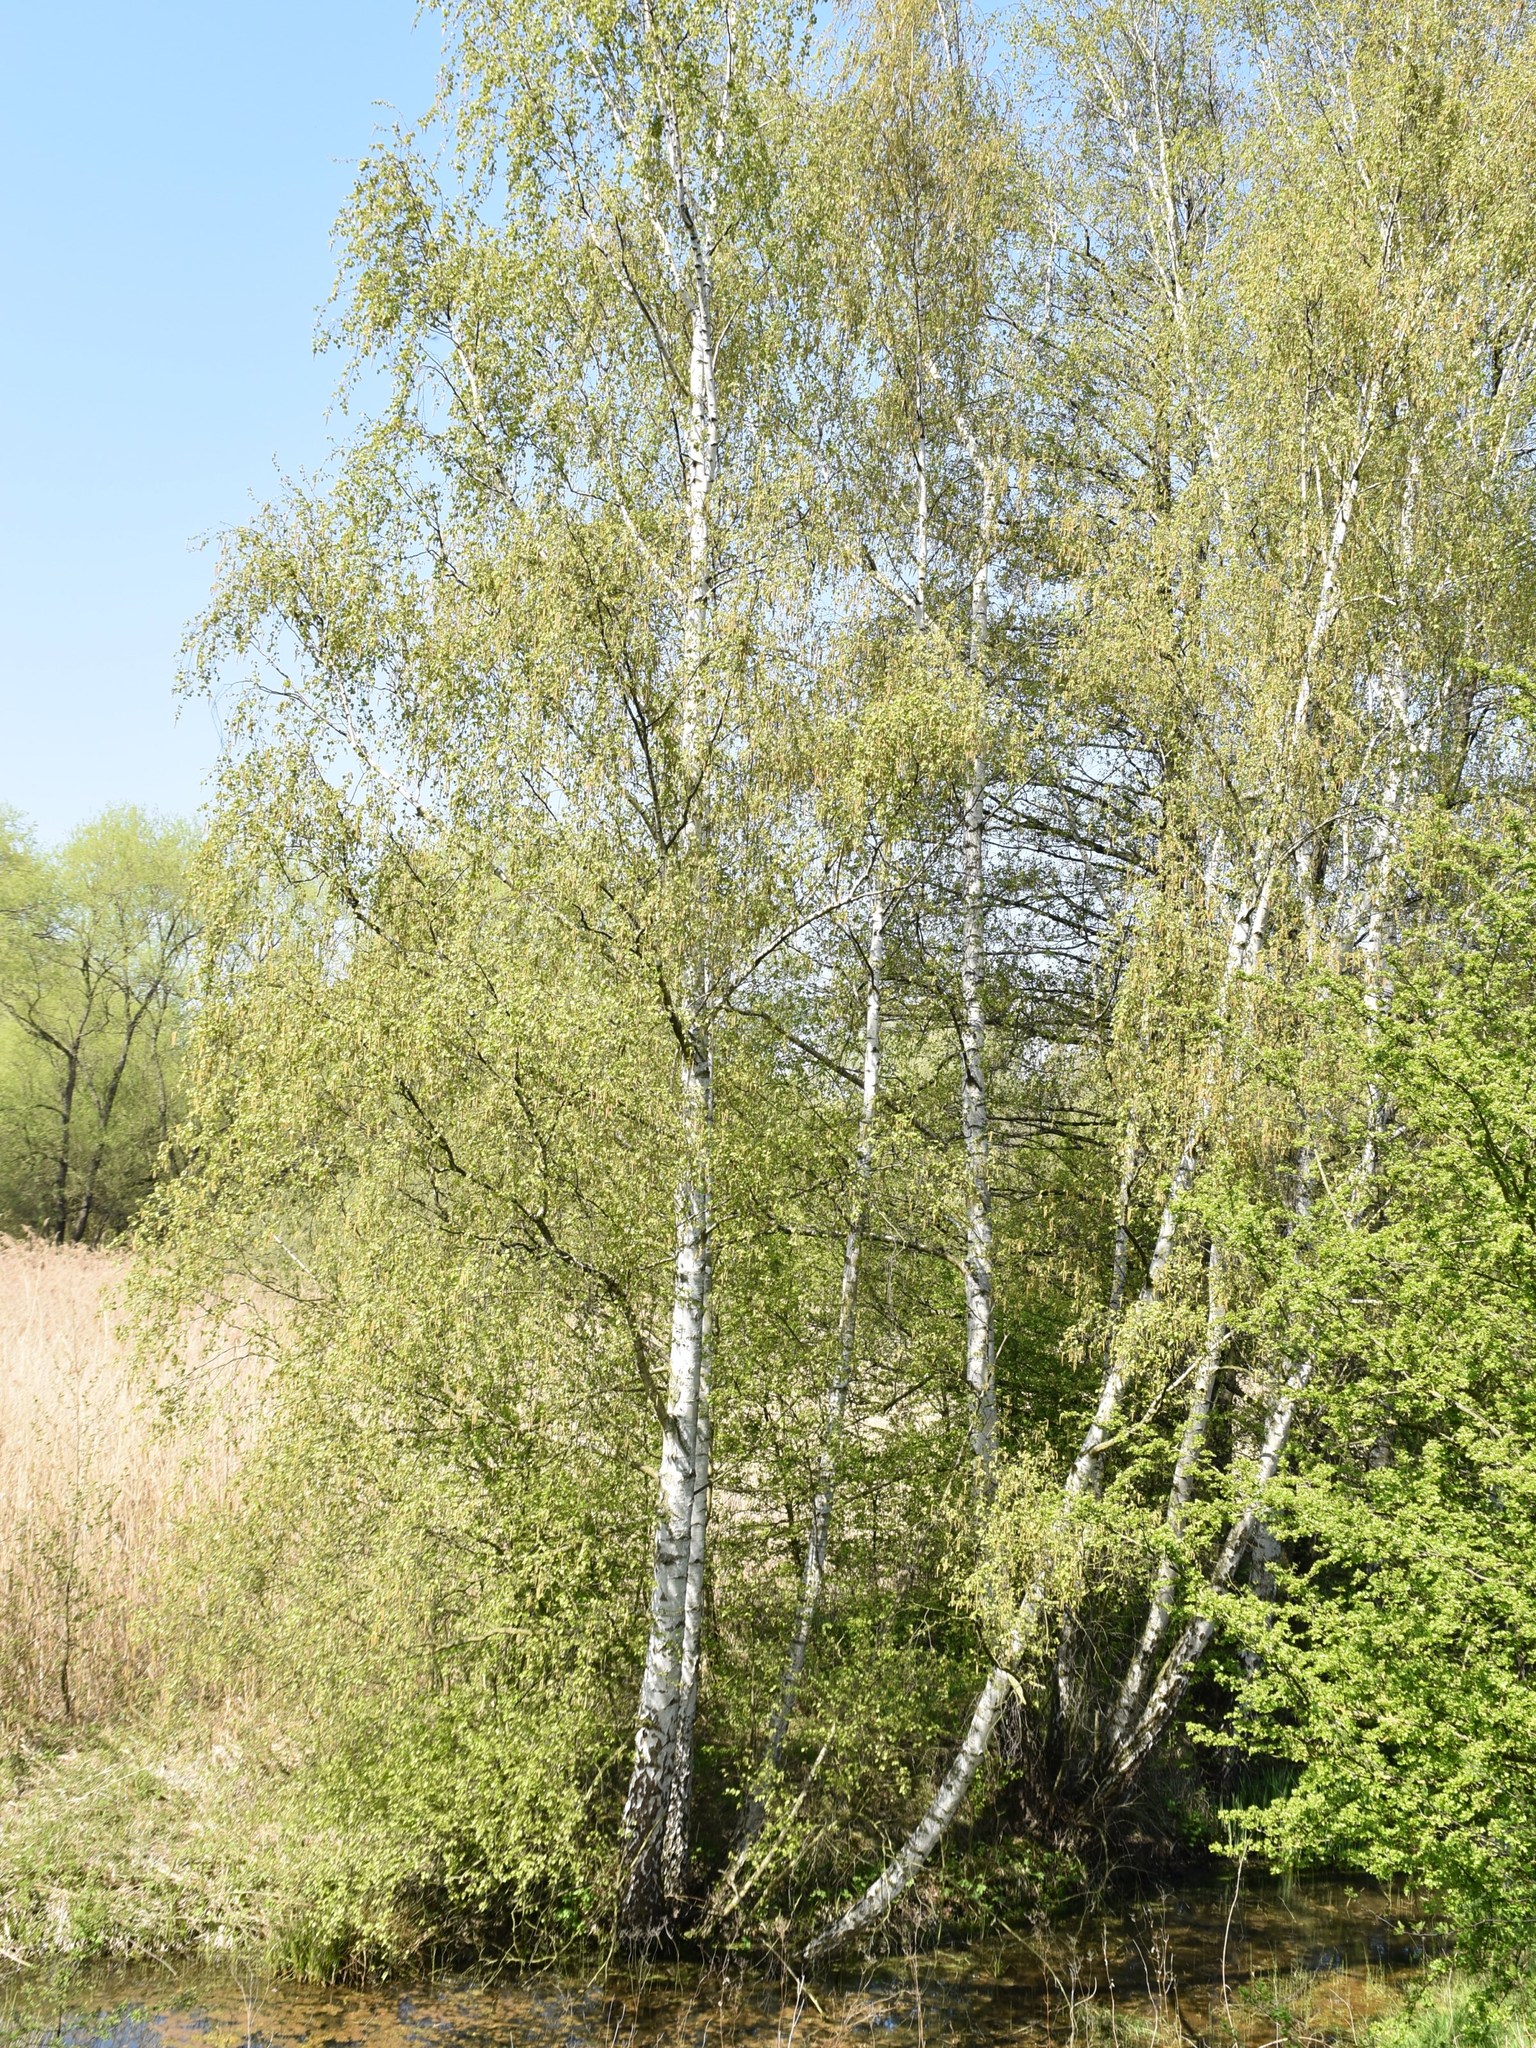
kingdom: Plantae
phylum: Tracheophyta
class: Magnoliopsida
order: Fagales
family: Betulaceae
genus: Betula
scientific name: Betula pendula
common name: Silver birch
